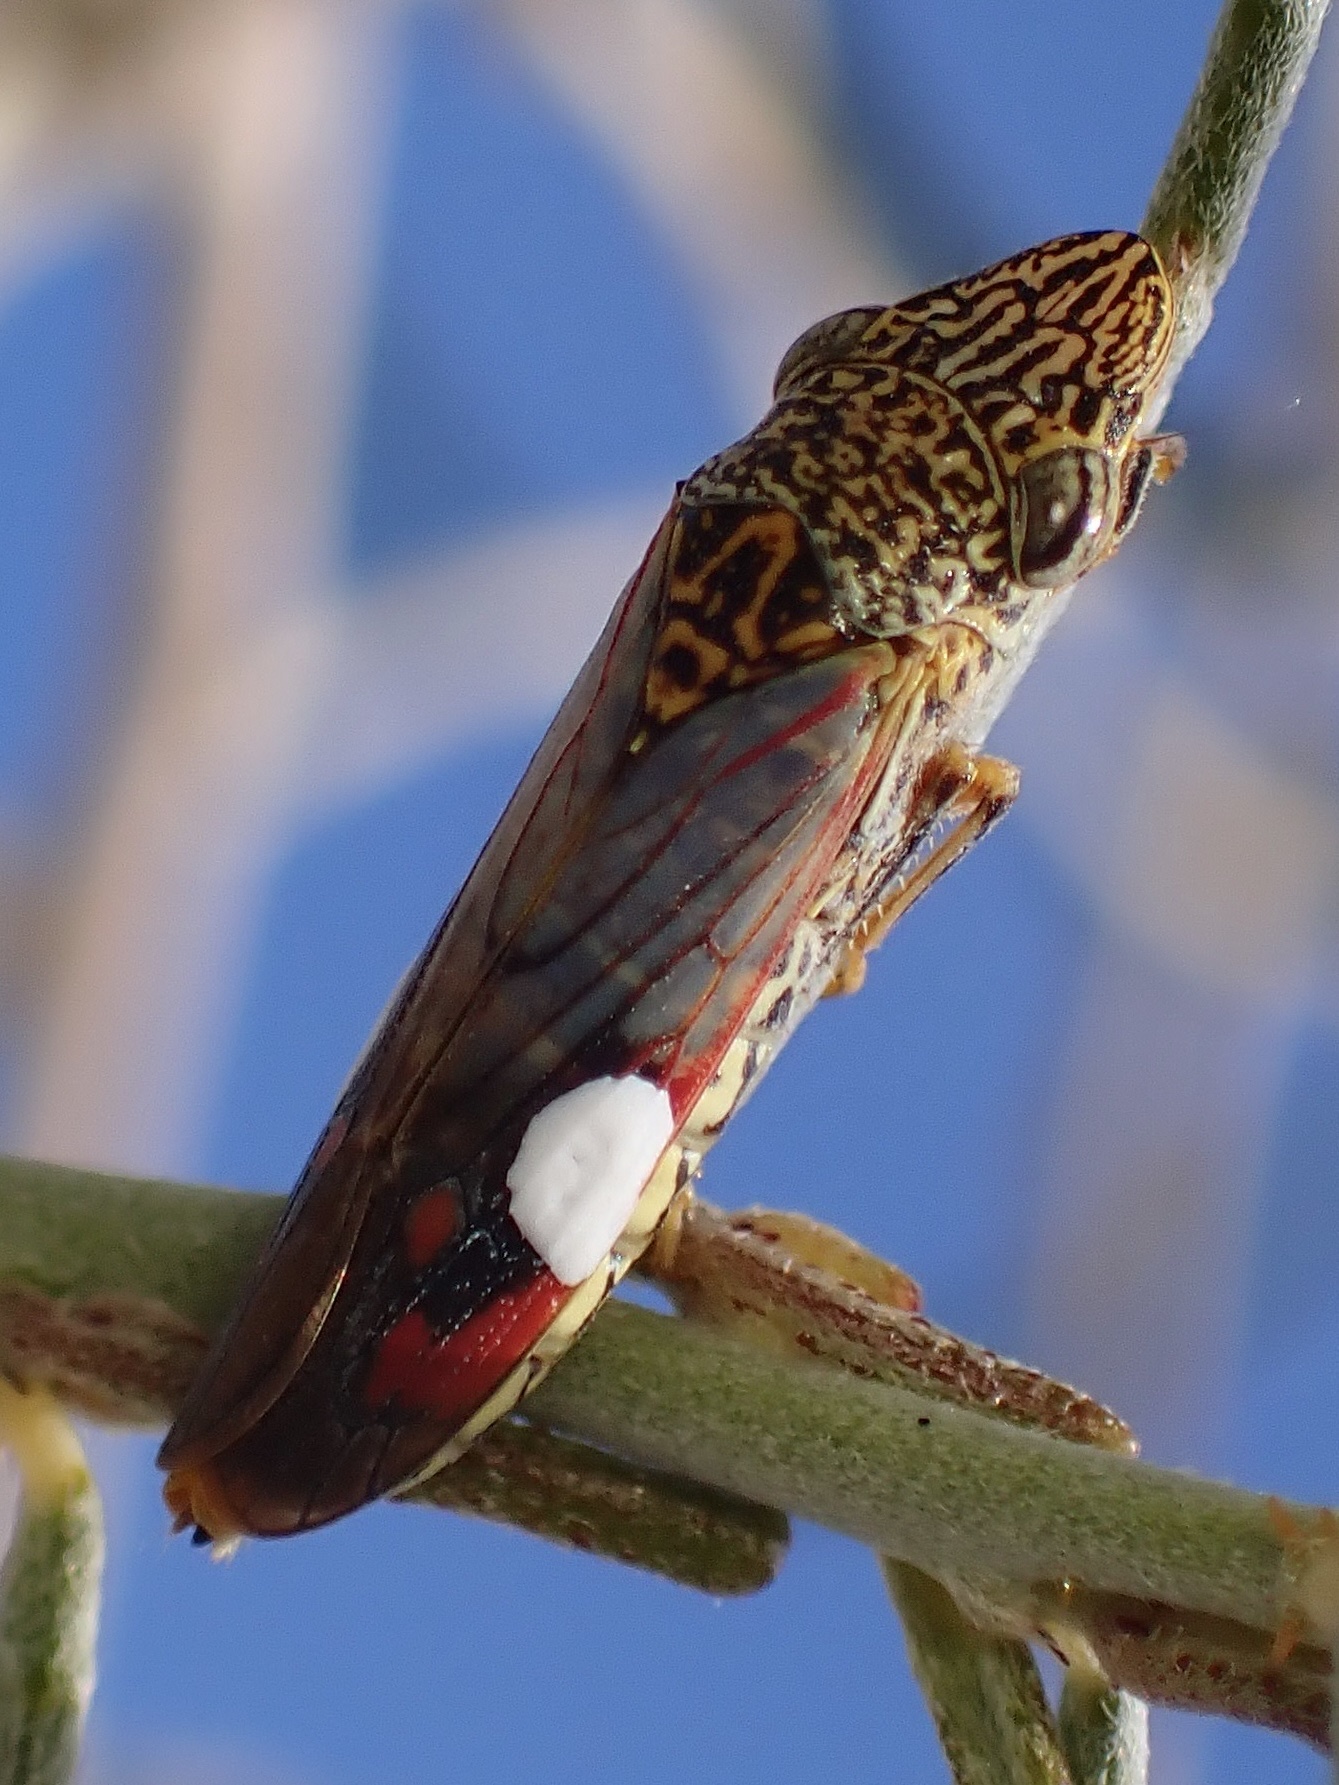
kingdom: Animalia
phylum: Arthropoda
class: Insecta
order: Hemiptera
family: Cicadellidae
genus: Homalodisca
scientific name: Homalodisca liturata
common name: Lacertate sharpshooter
